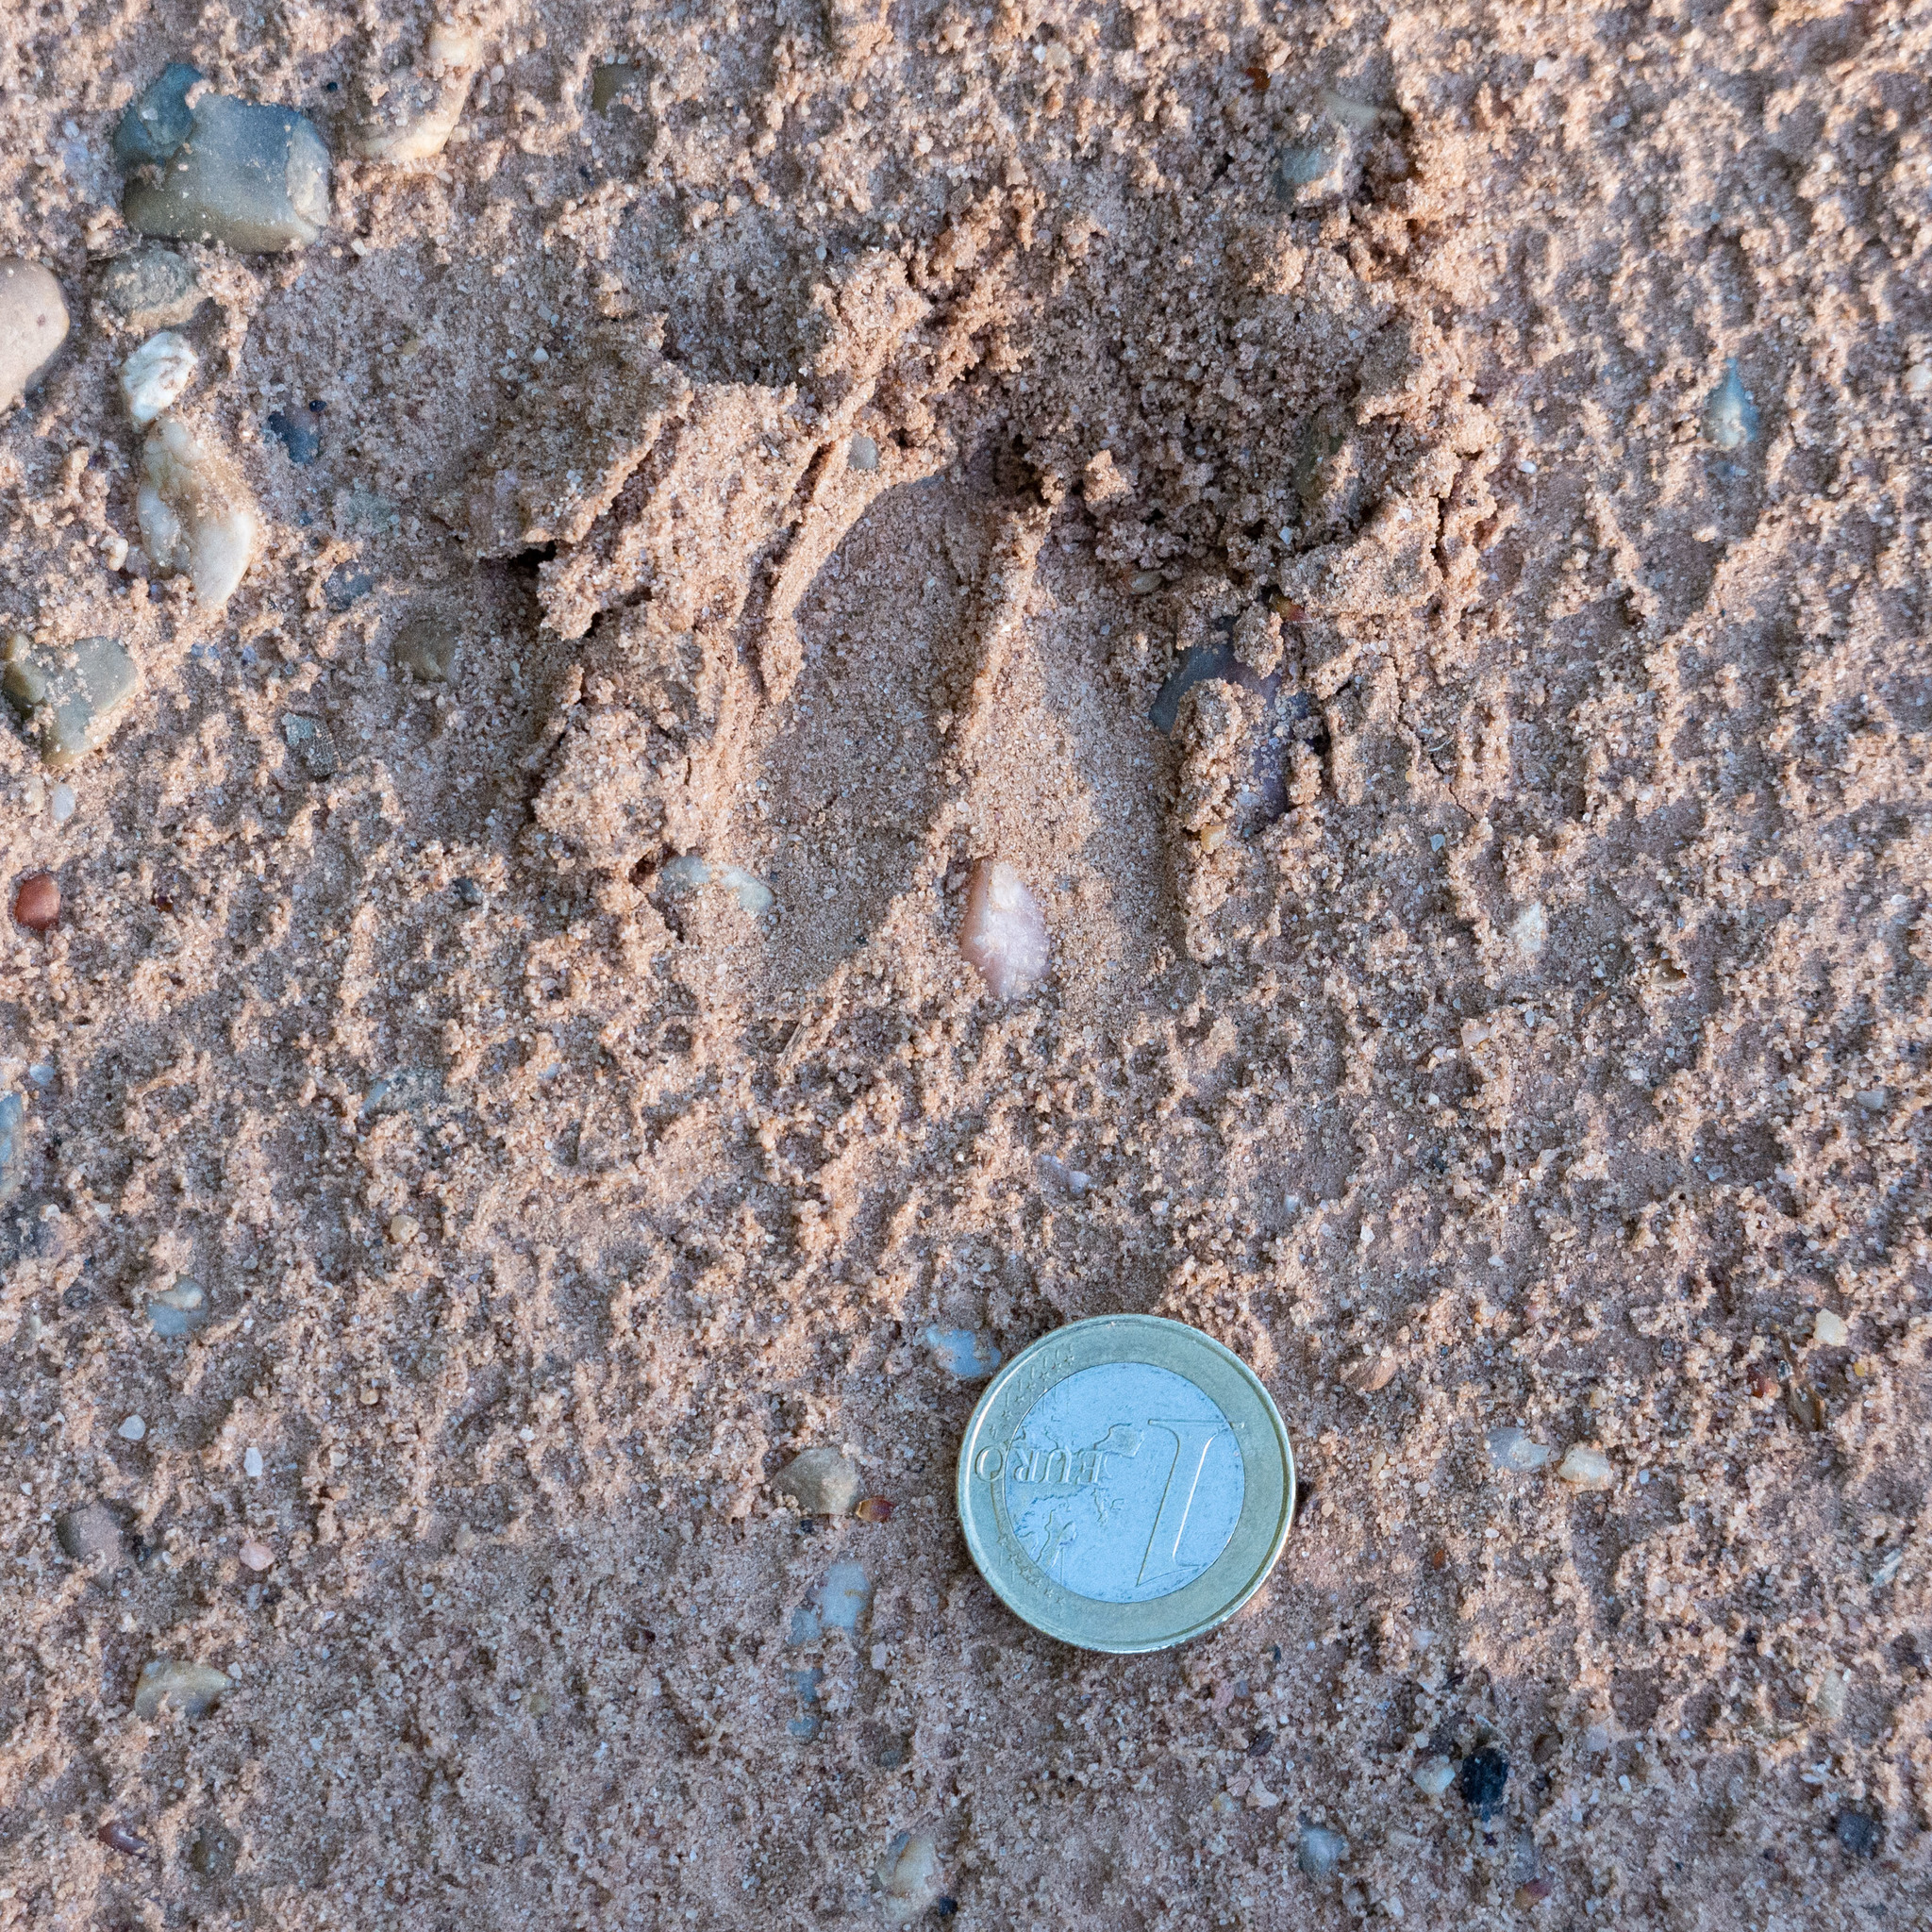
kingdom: Animalia
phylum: Chordata
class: Mammalia
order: Artiodactyla
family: Cervidae
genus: Capreolus
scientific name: Capreolus capreolus
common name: Western roe deer
